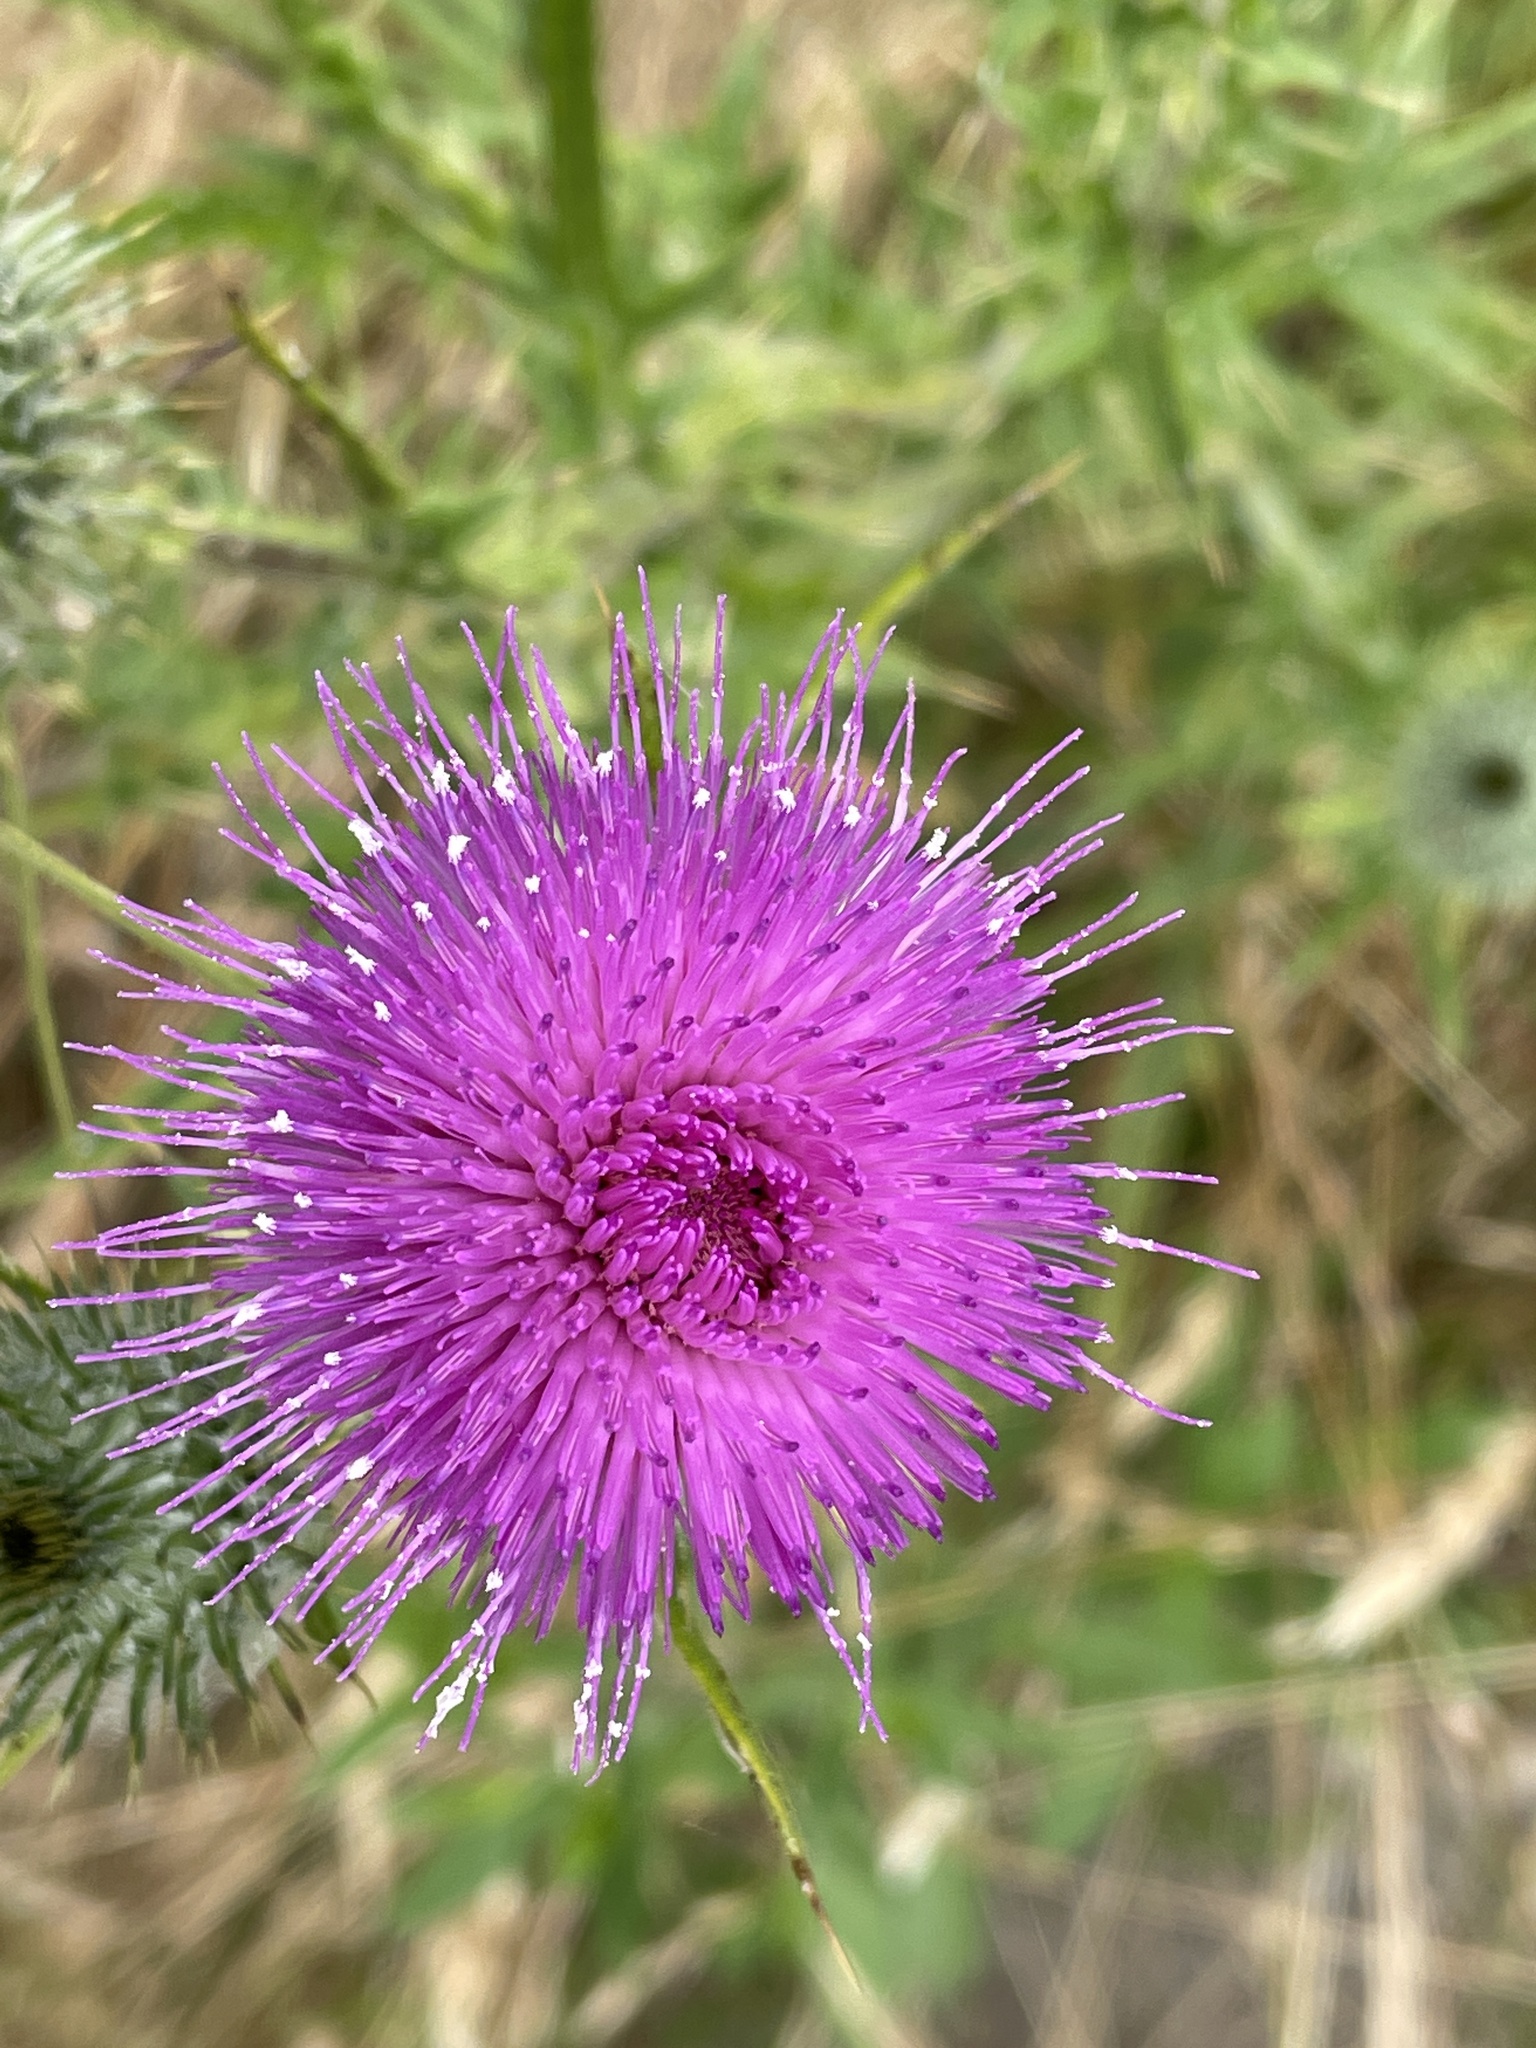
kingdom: Plantae
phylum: Tracheophyta
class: Magnoliopsida
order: Asterales
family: Asteraceae
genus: Cirsium
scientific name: Cirsium vulgare
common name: Bull thistle
